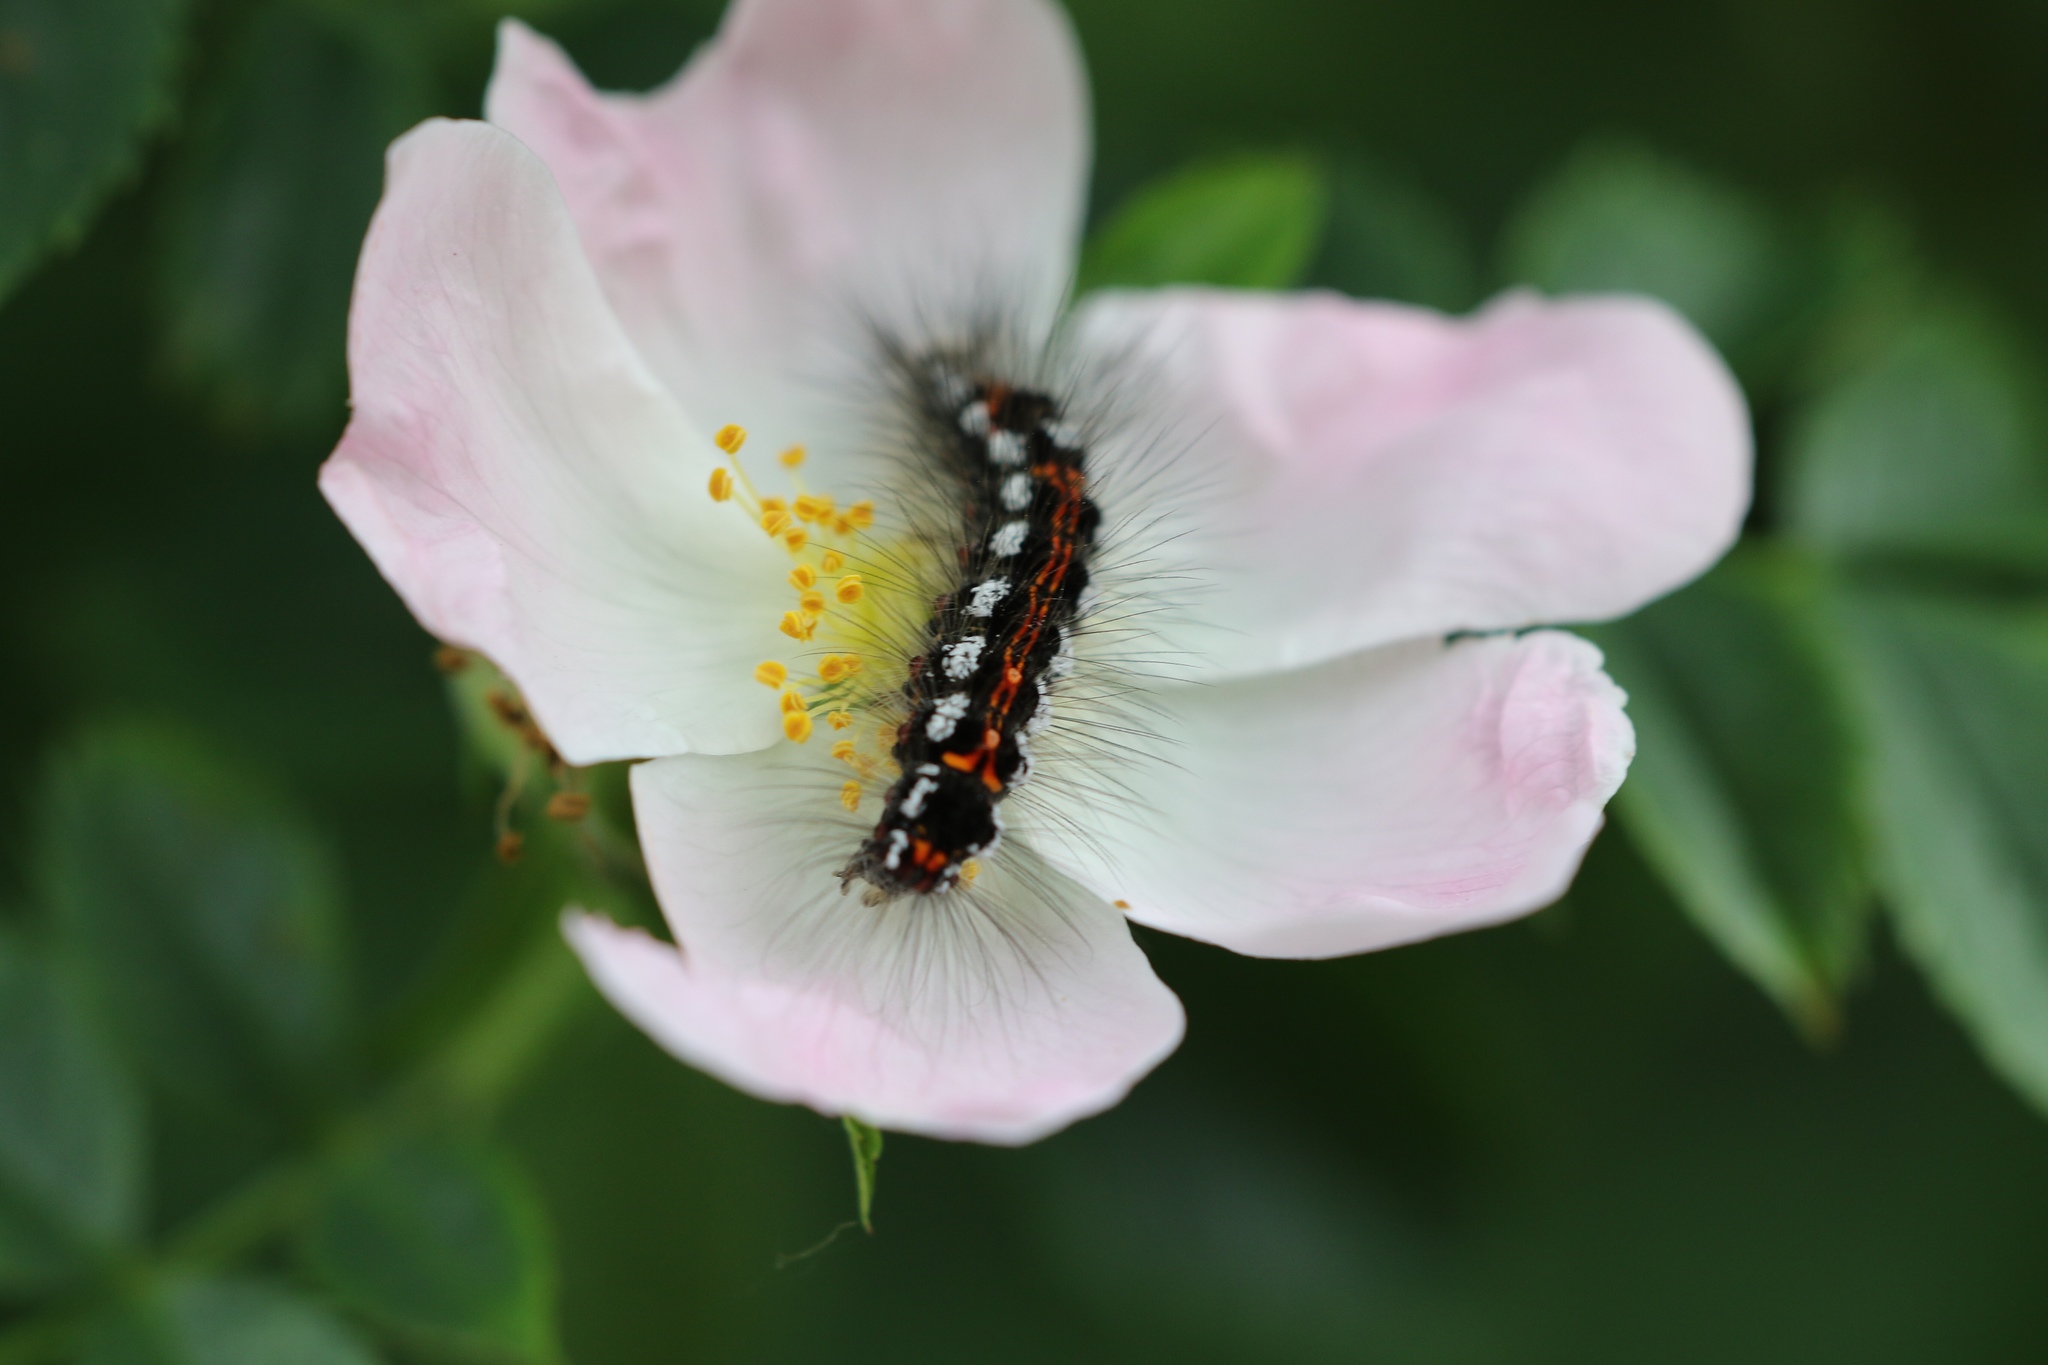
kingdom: Animalia
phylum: Arthropoda
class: Insecta
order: Lepidoptera
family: Erebidae
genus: Sphrageidus
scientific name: Sphrageidus similis
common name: Yellow-tail
